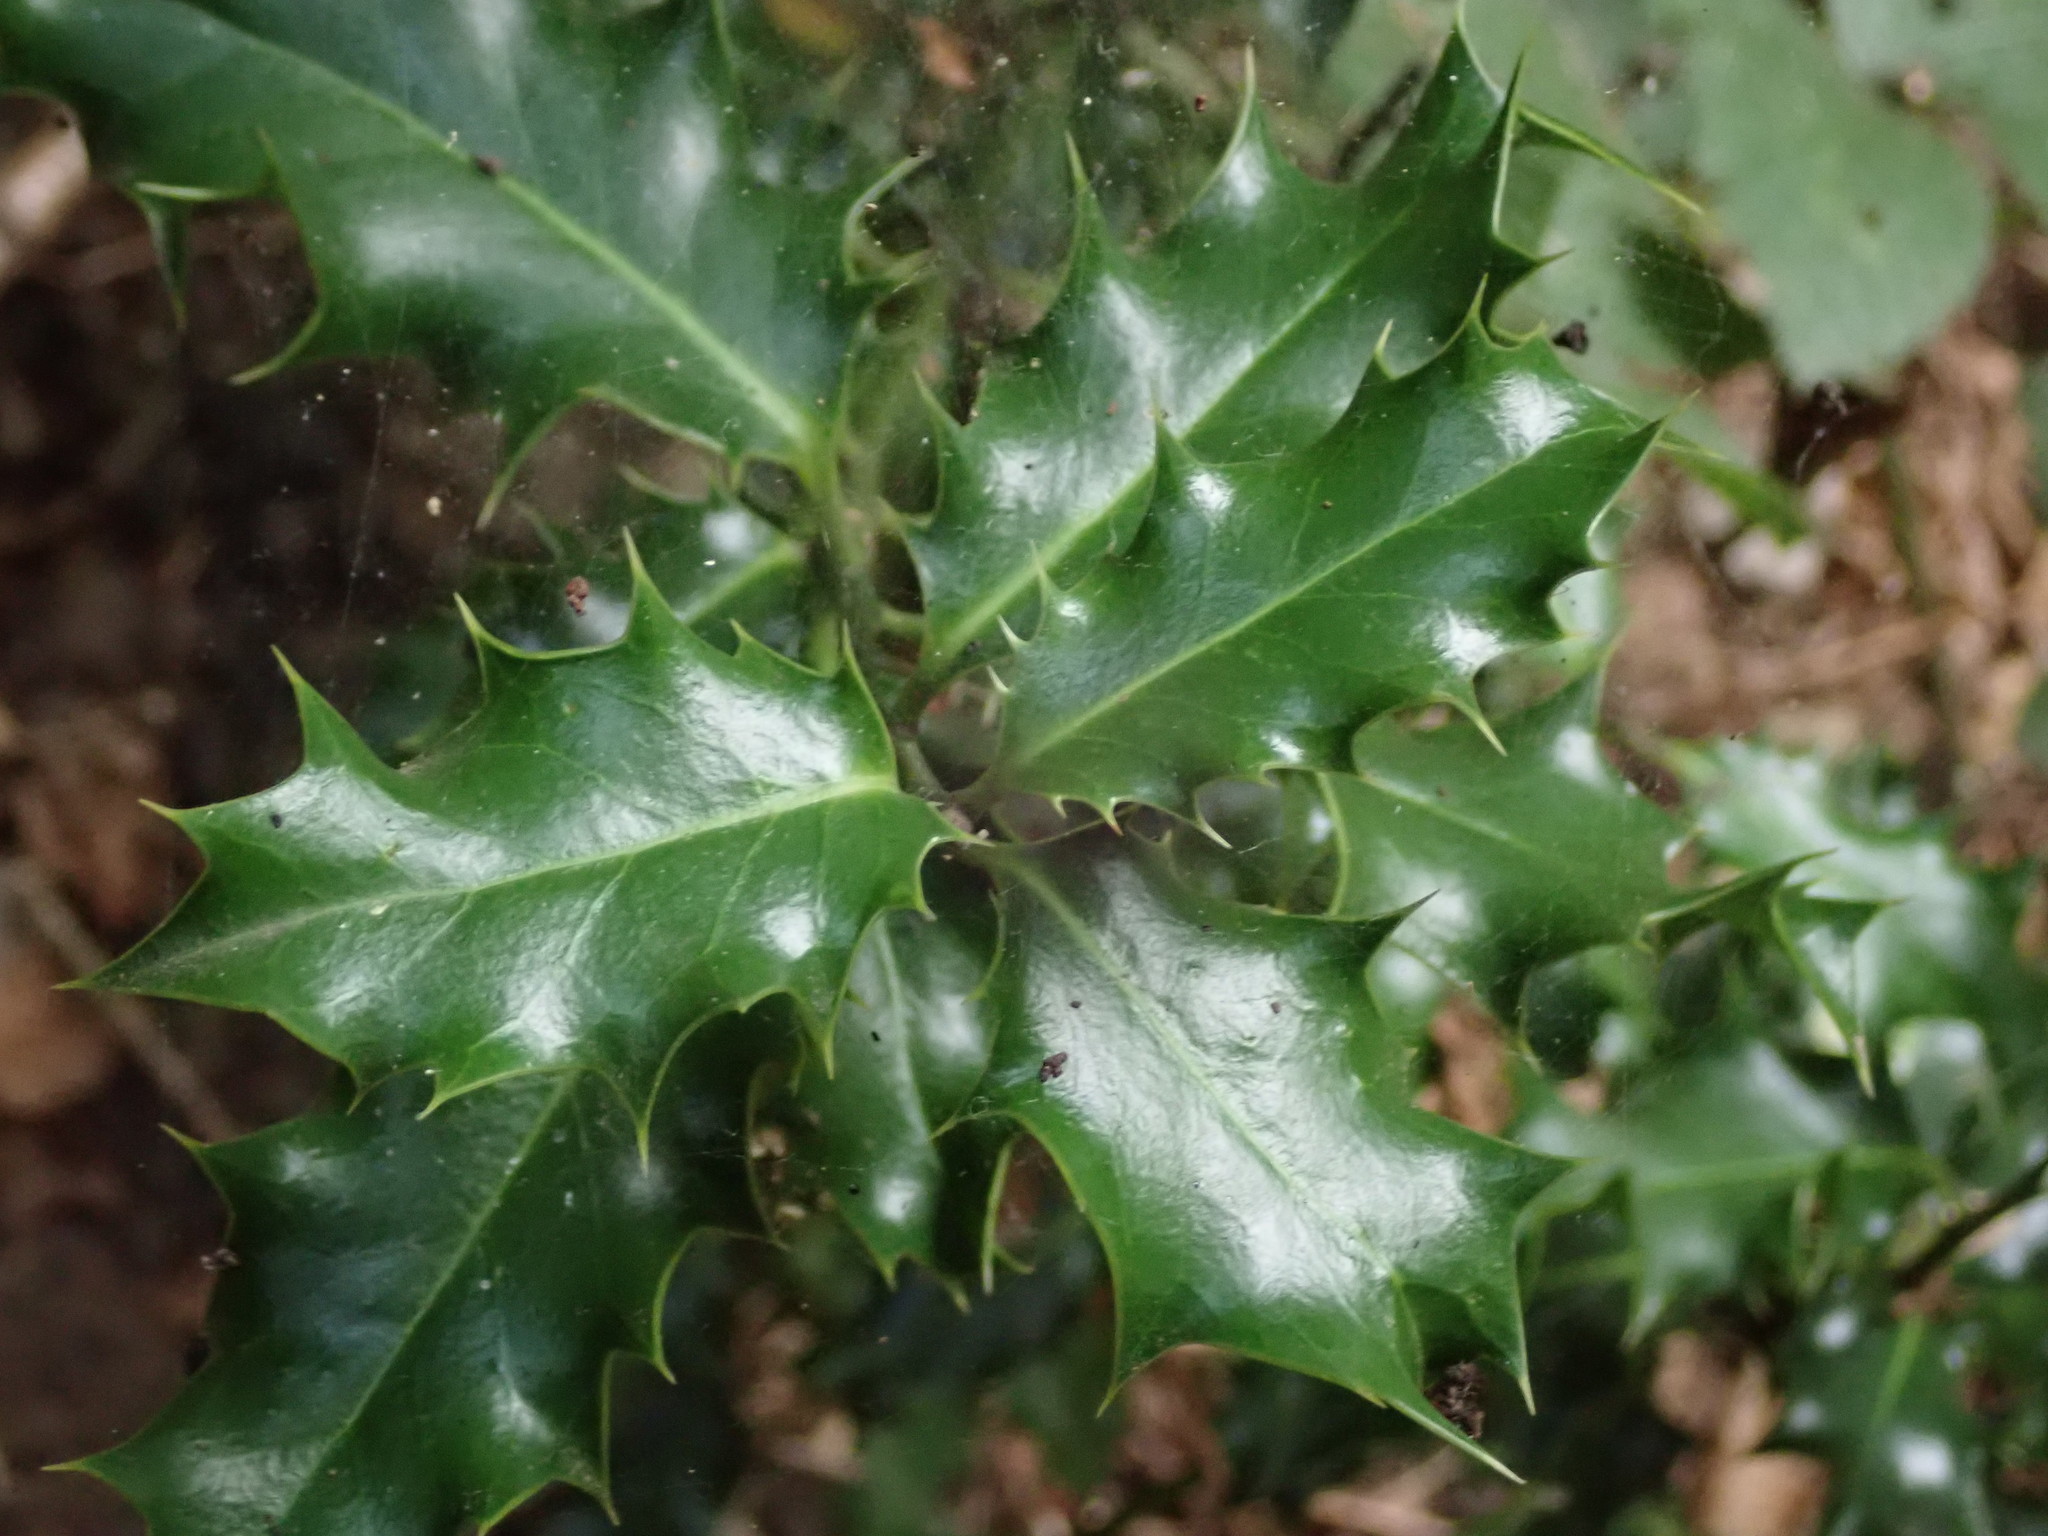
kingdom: Plantae
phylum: Tracheophyta
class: Magnoliopsida
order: Aquifoliales
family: Aquifoliaceae
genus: Ilex
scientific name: Ilex aquifolium
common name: English holly
